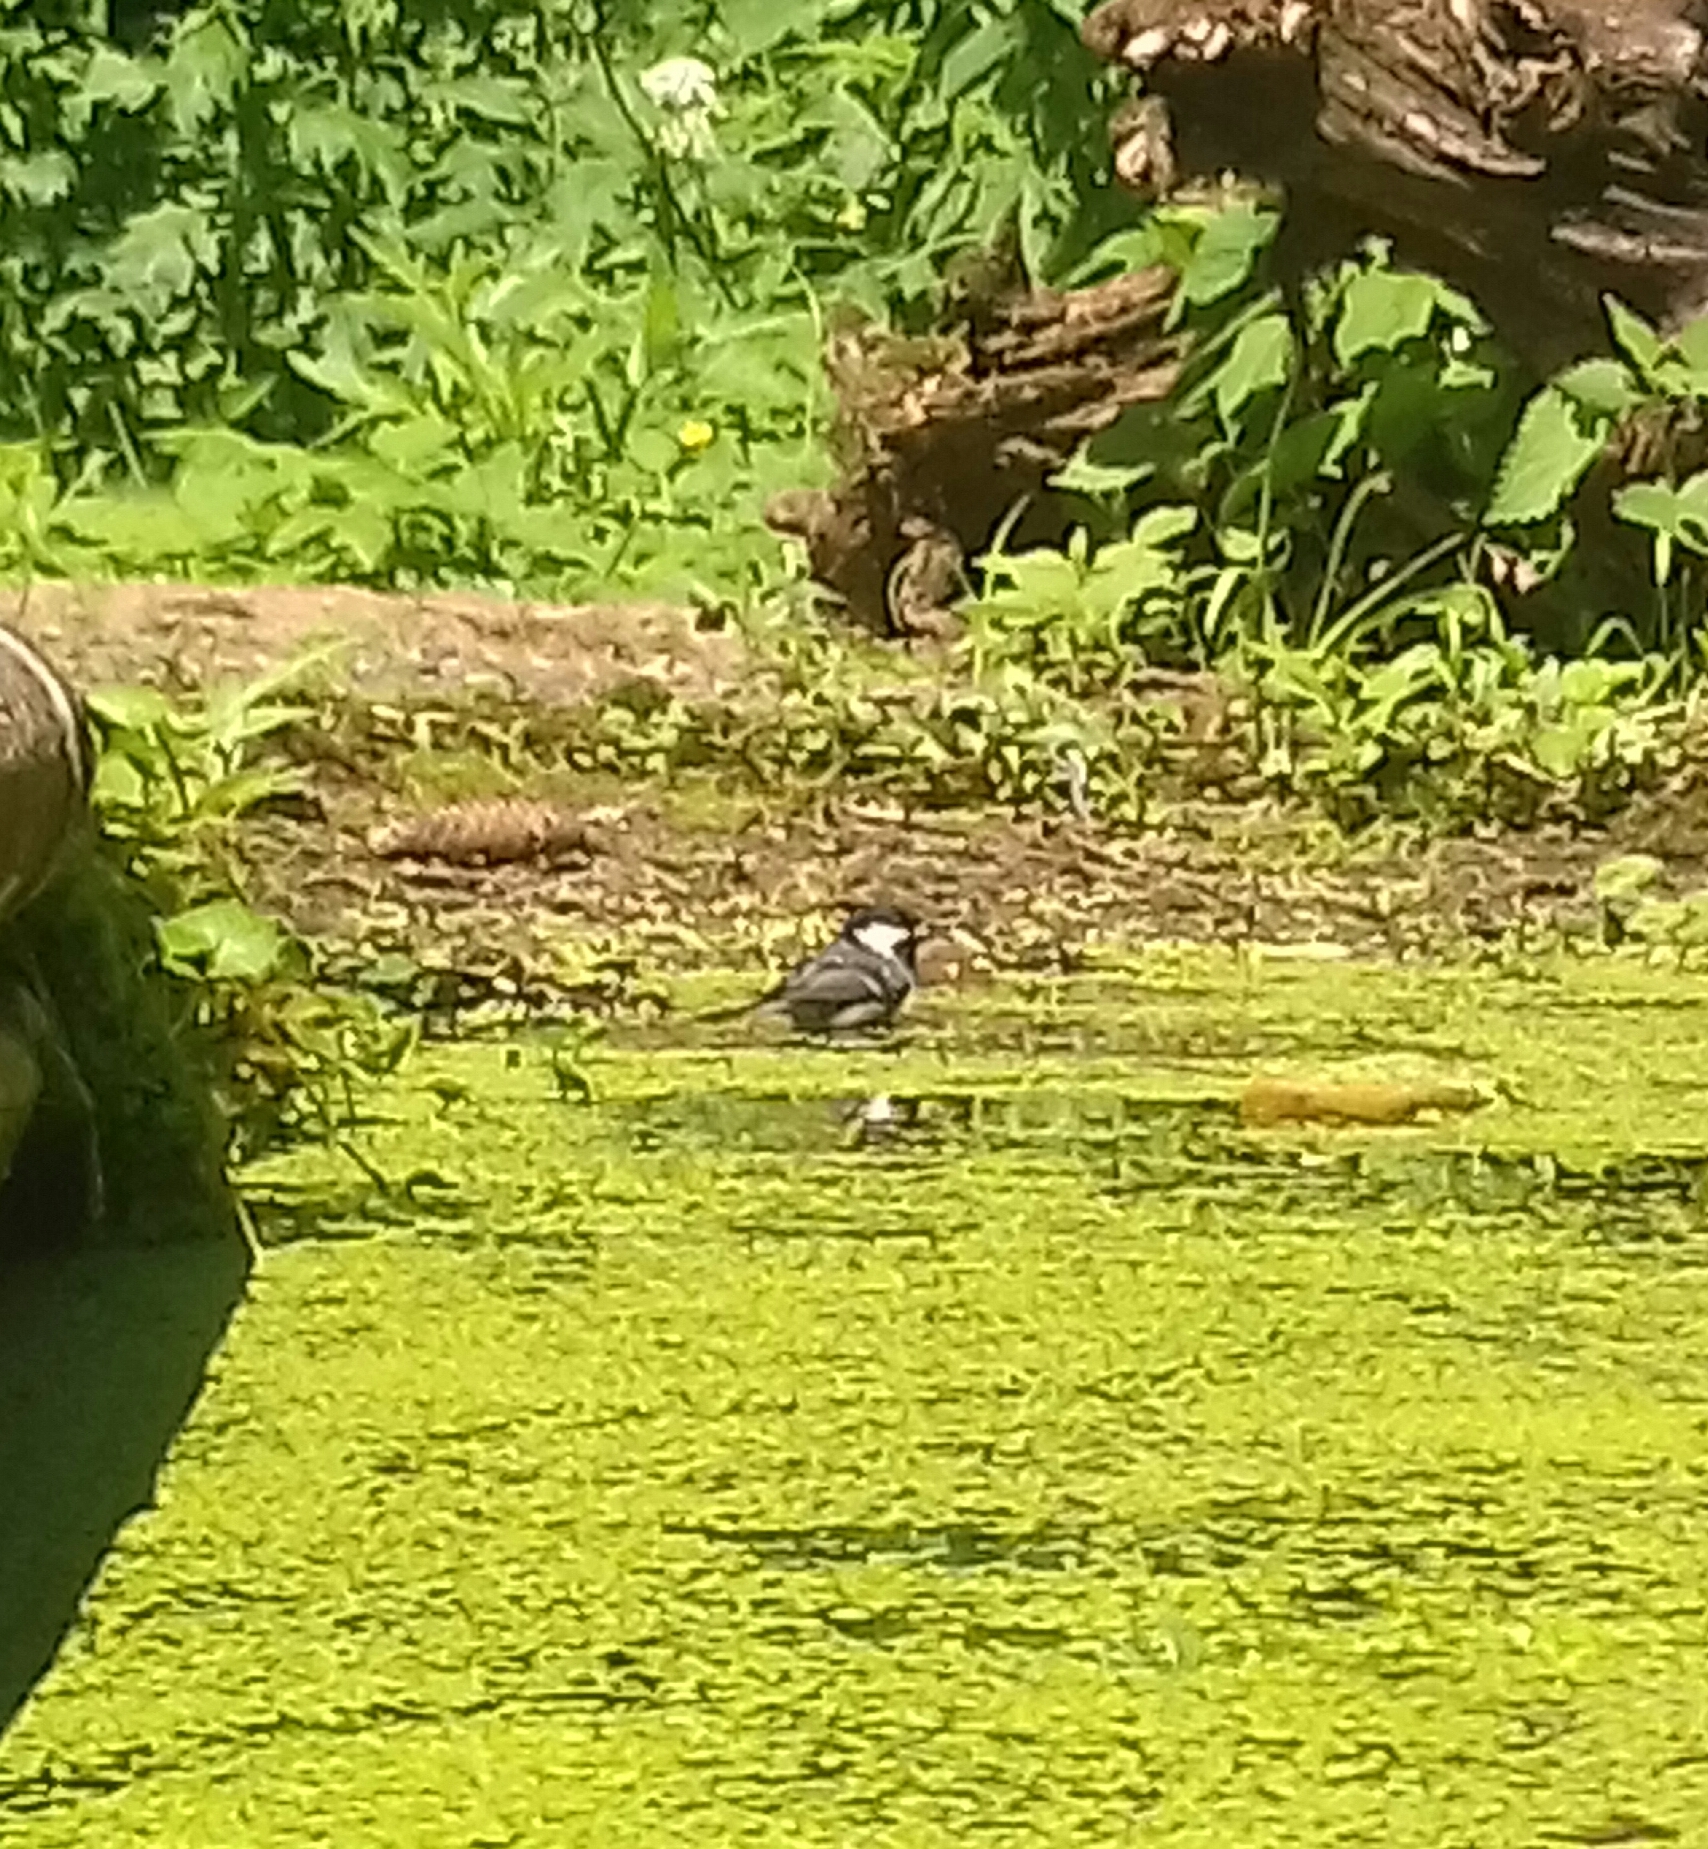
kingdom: Animalia
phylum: Chordata
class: Aves
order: Passeriformes
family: Paridae
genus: Periparus
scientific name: Periparus ater
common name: Coal tit
